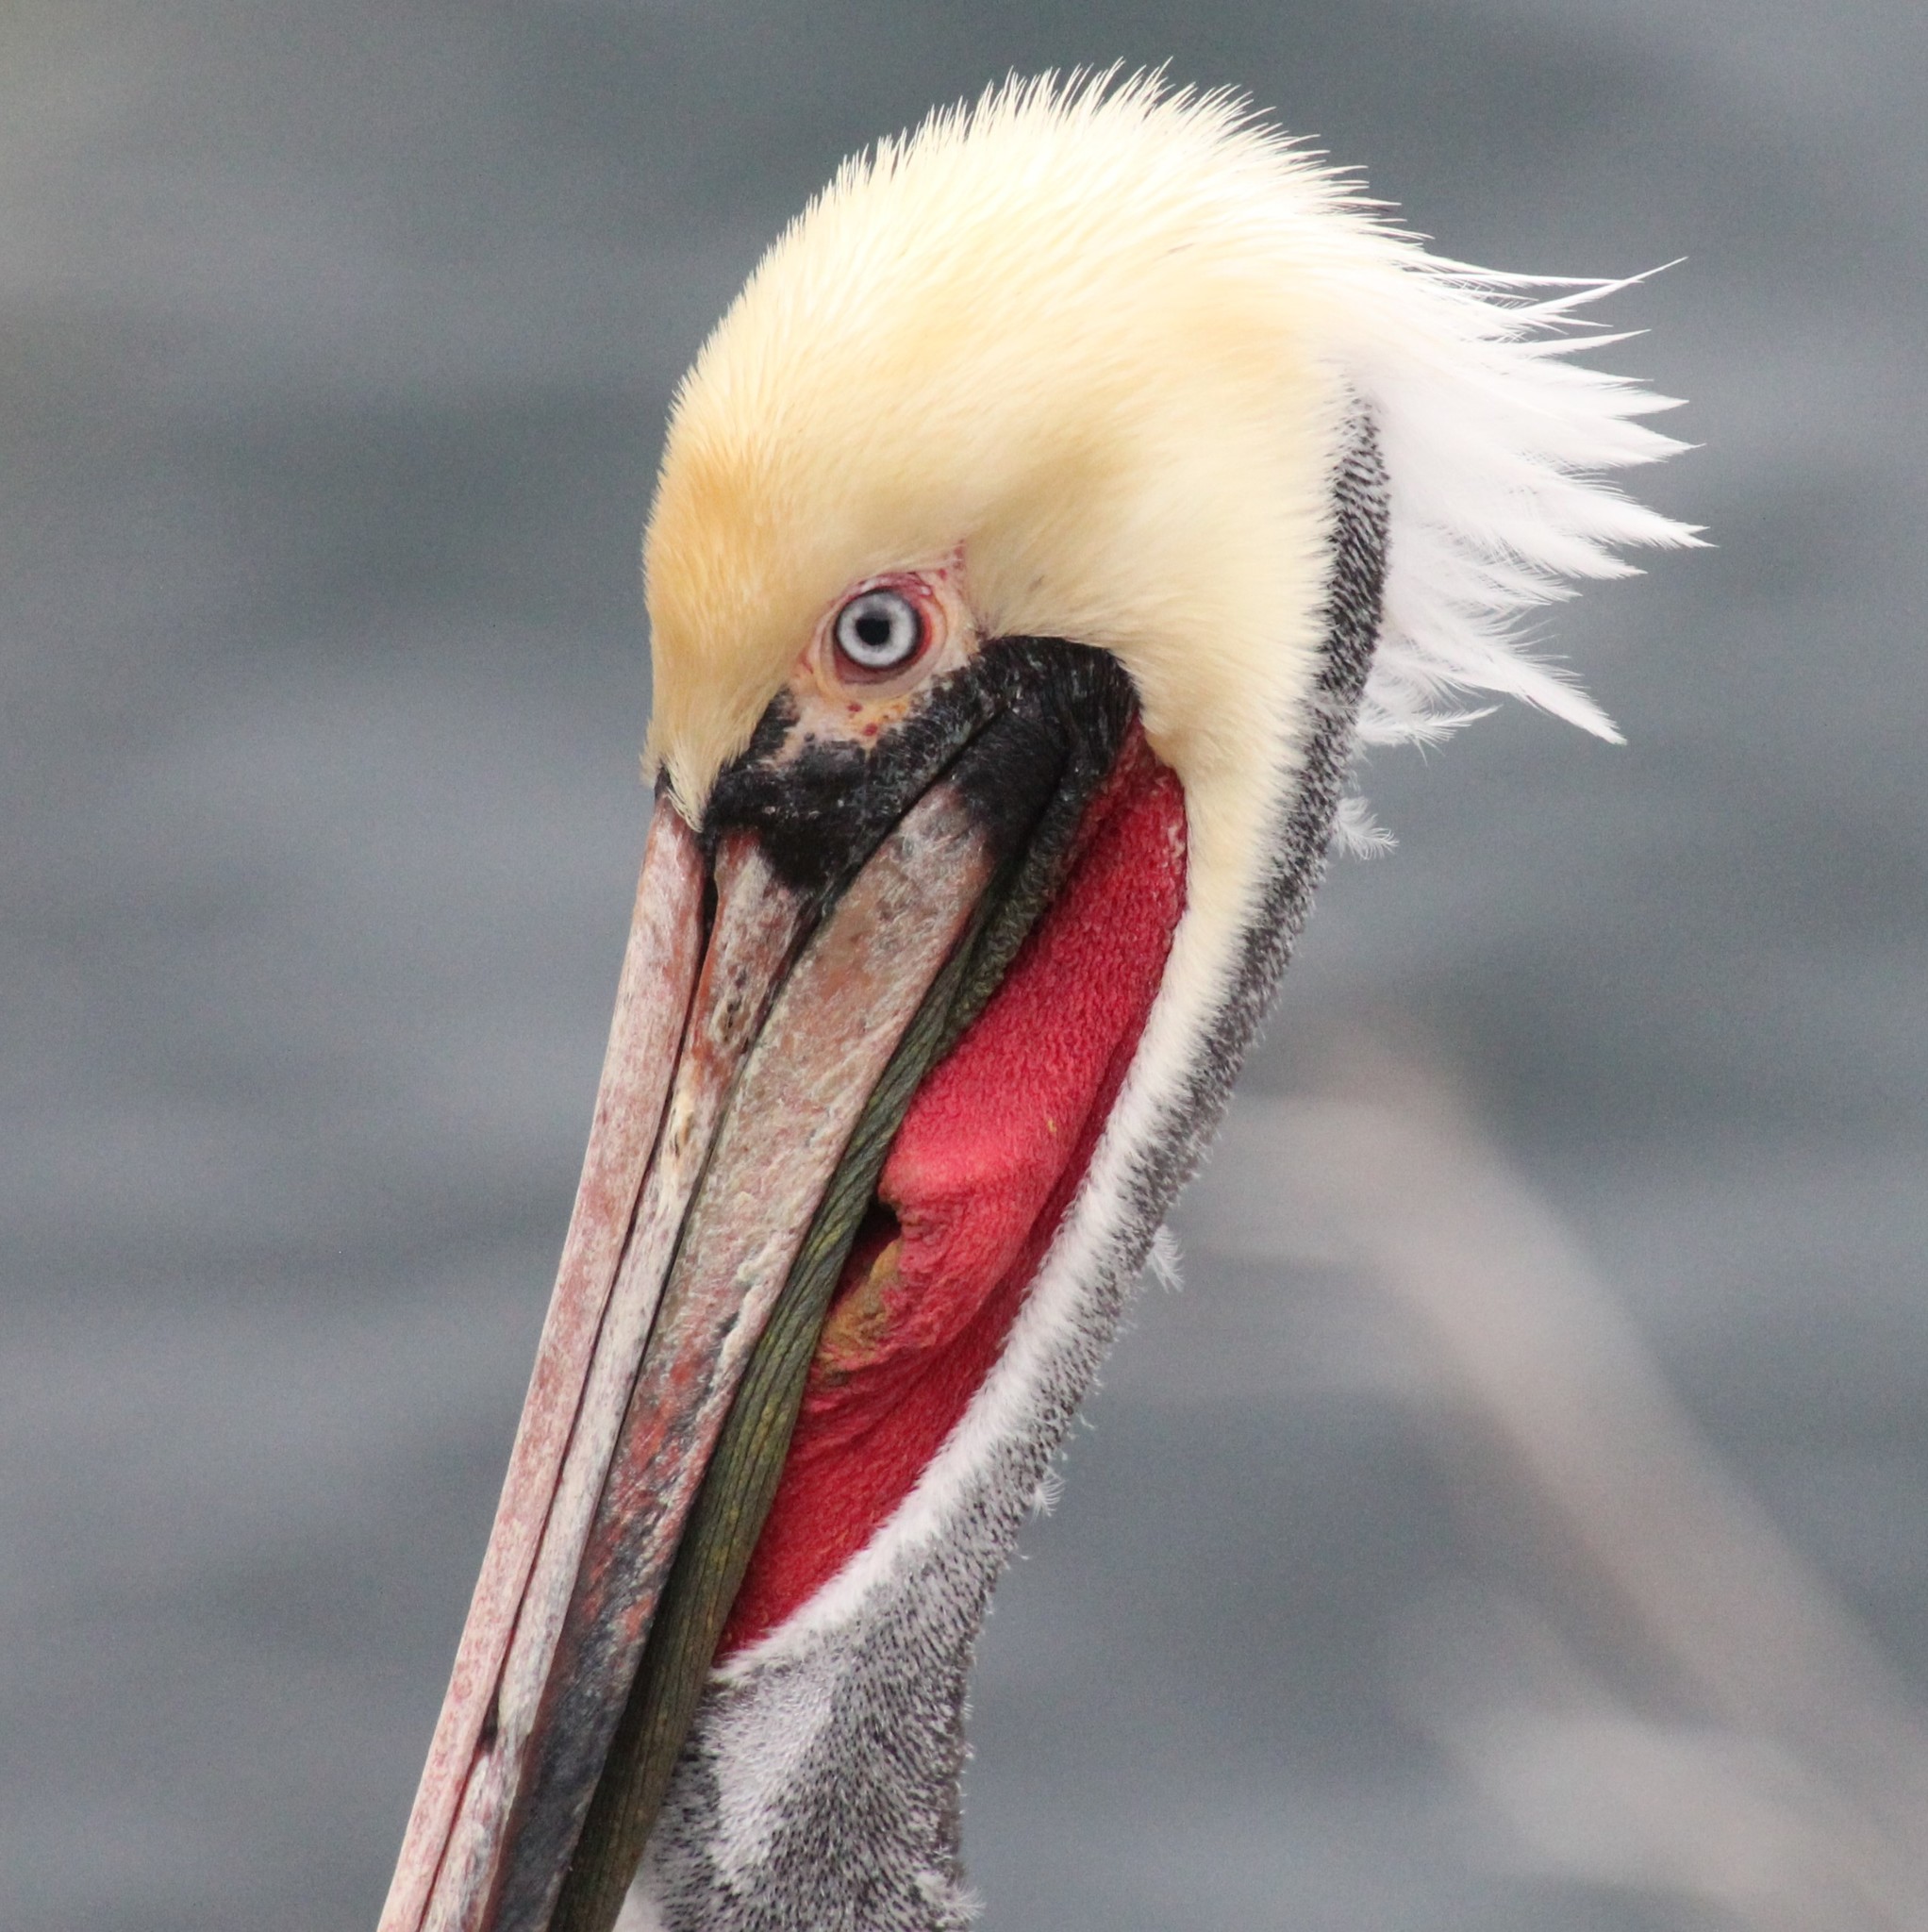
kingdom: Animalia
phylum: Chordata
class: Aves
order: Pelecaniformes
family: Pelecanidae
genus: Pelecanus
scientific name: Pelecanus occidentalis
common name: Brown pelican
